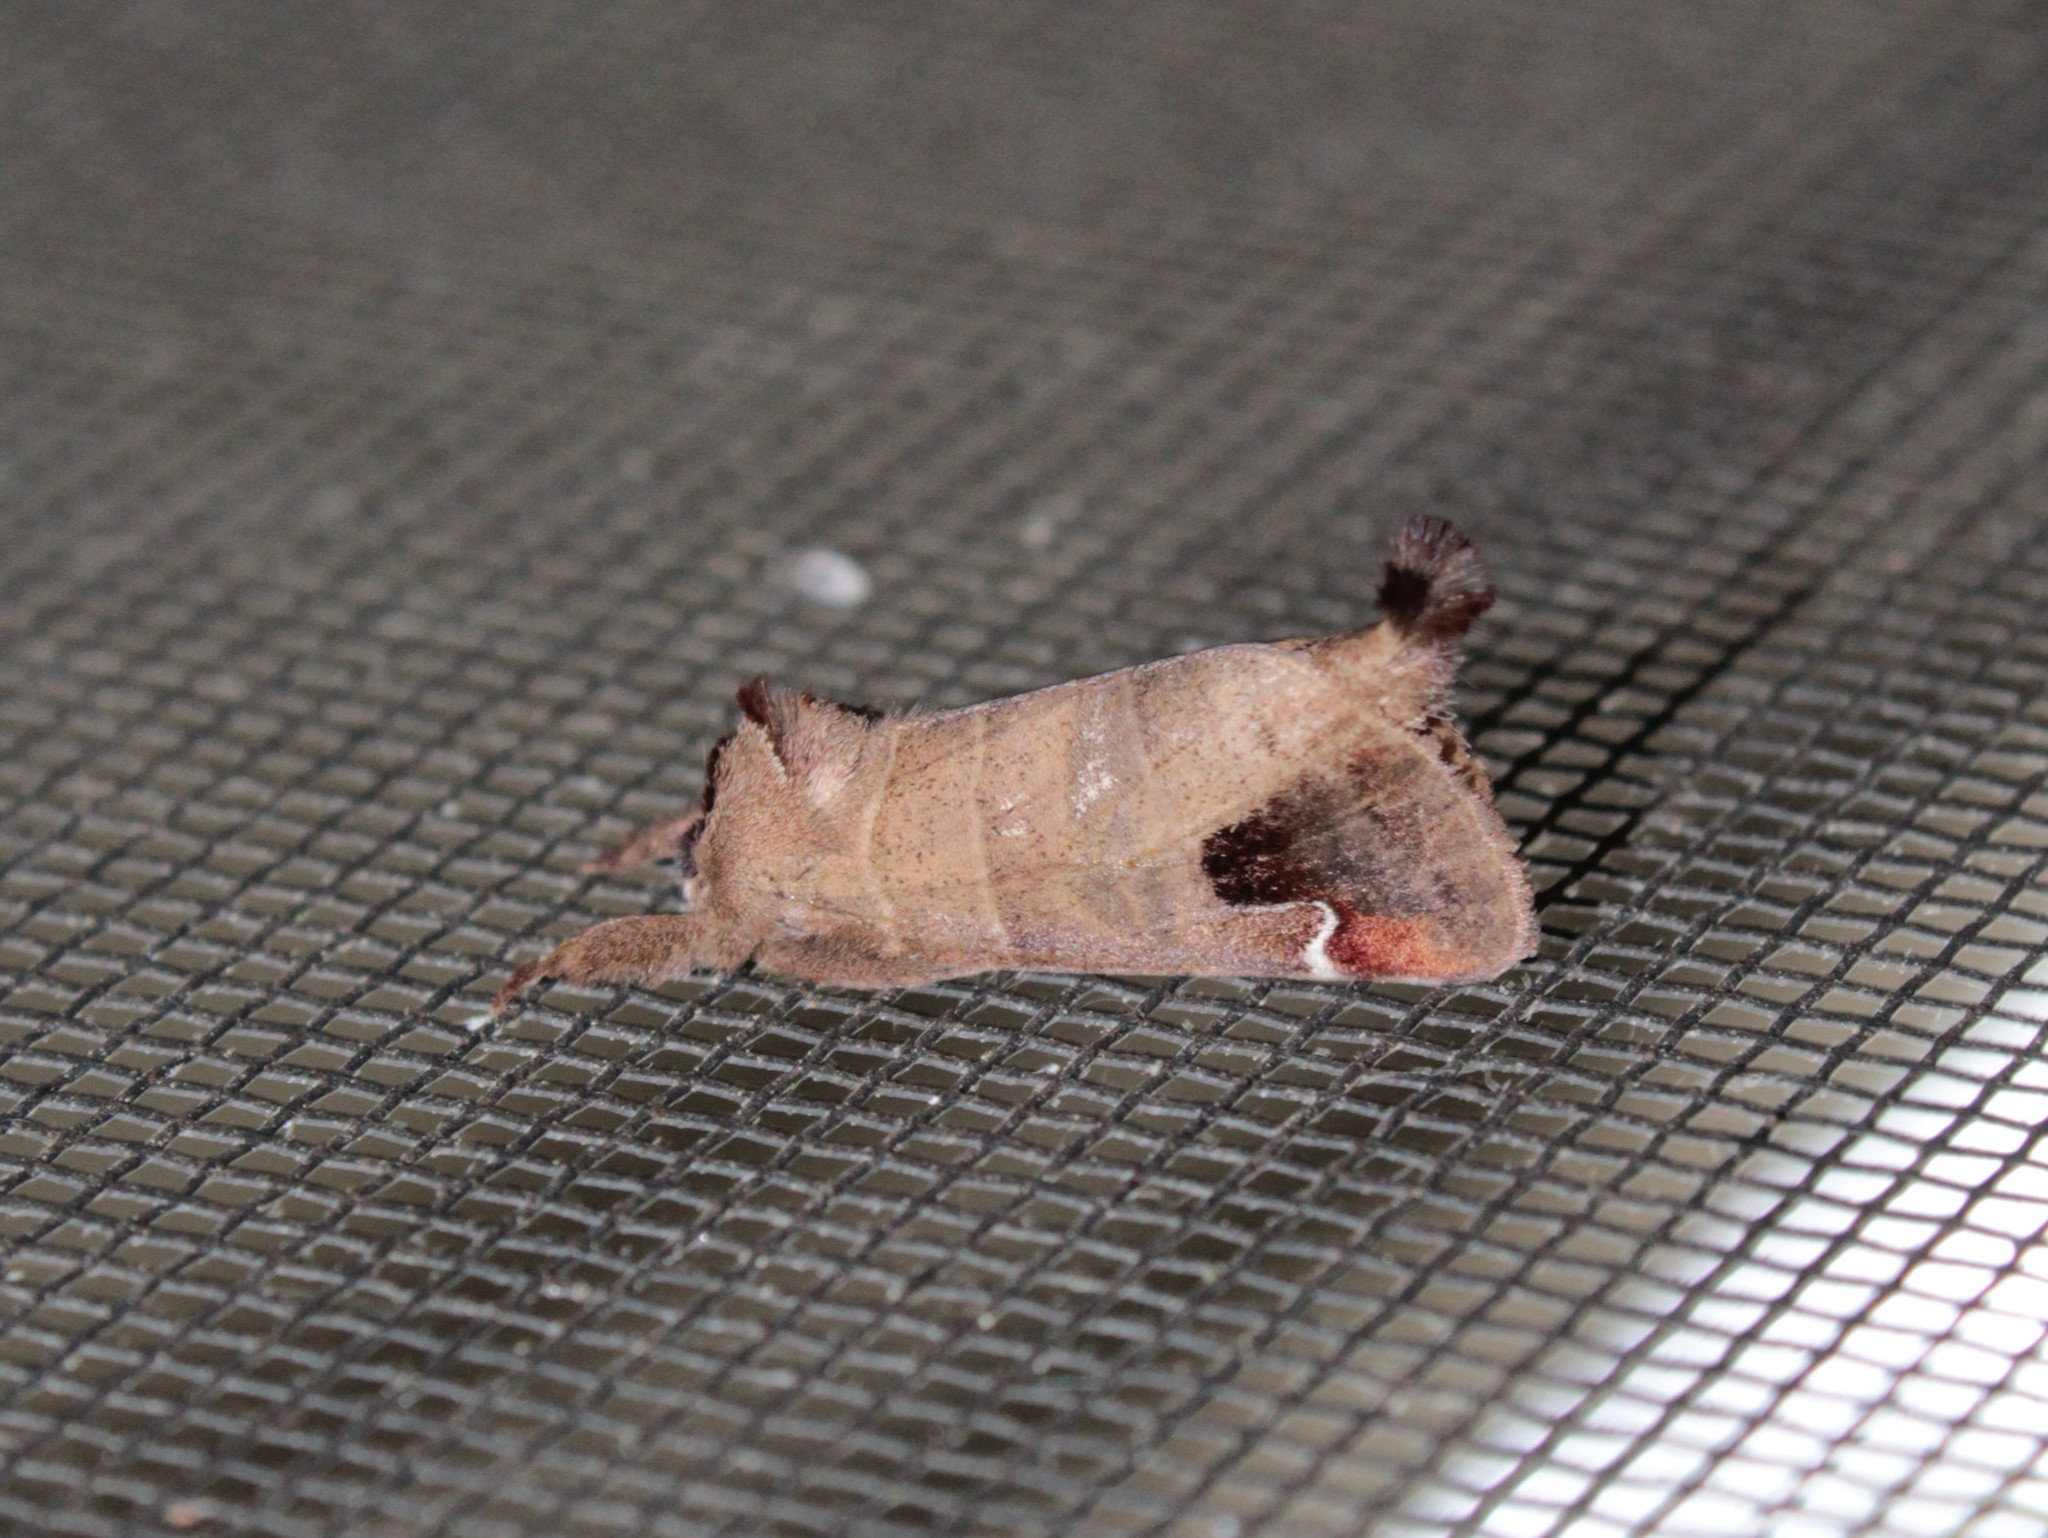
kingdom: Animalia
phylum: Arthropoda
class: Insecta
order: Lepidoptera
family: Notodontidae
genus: Clostera
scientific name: Clostera albosigma
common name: Sigmoid prominent
